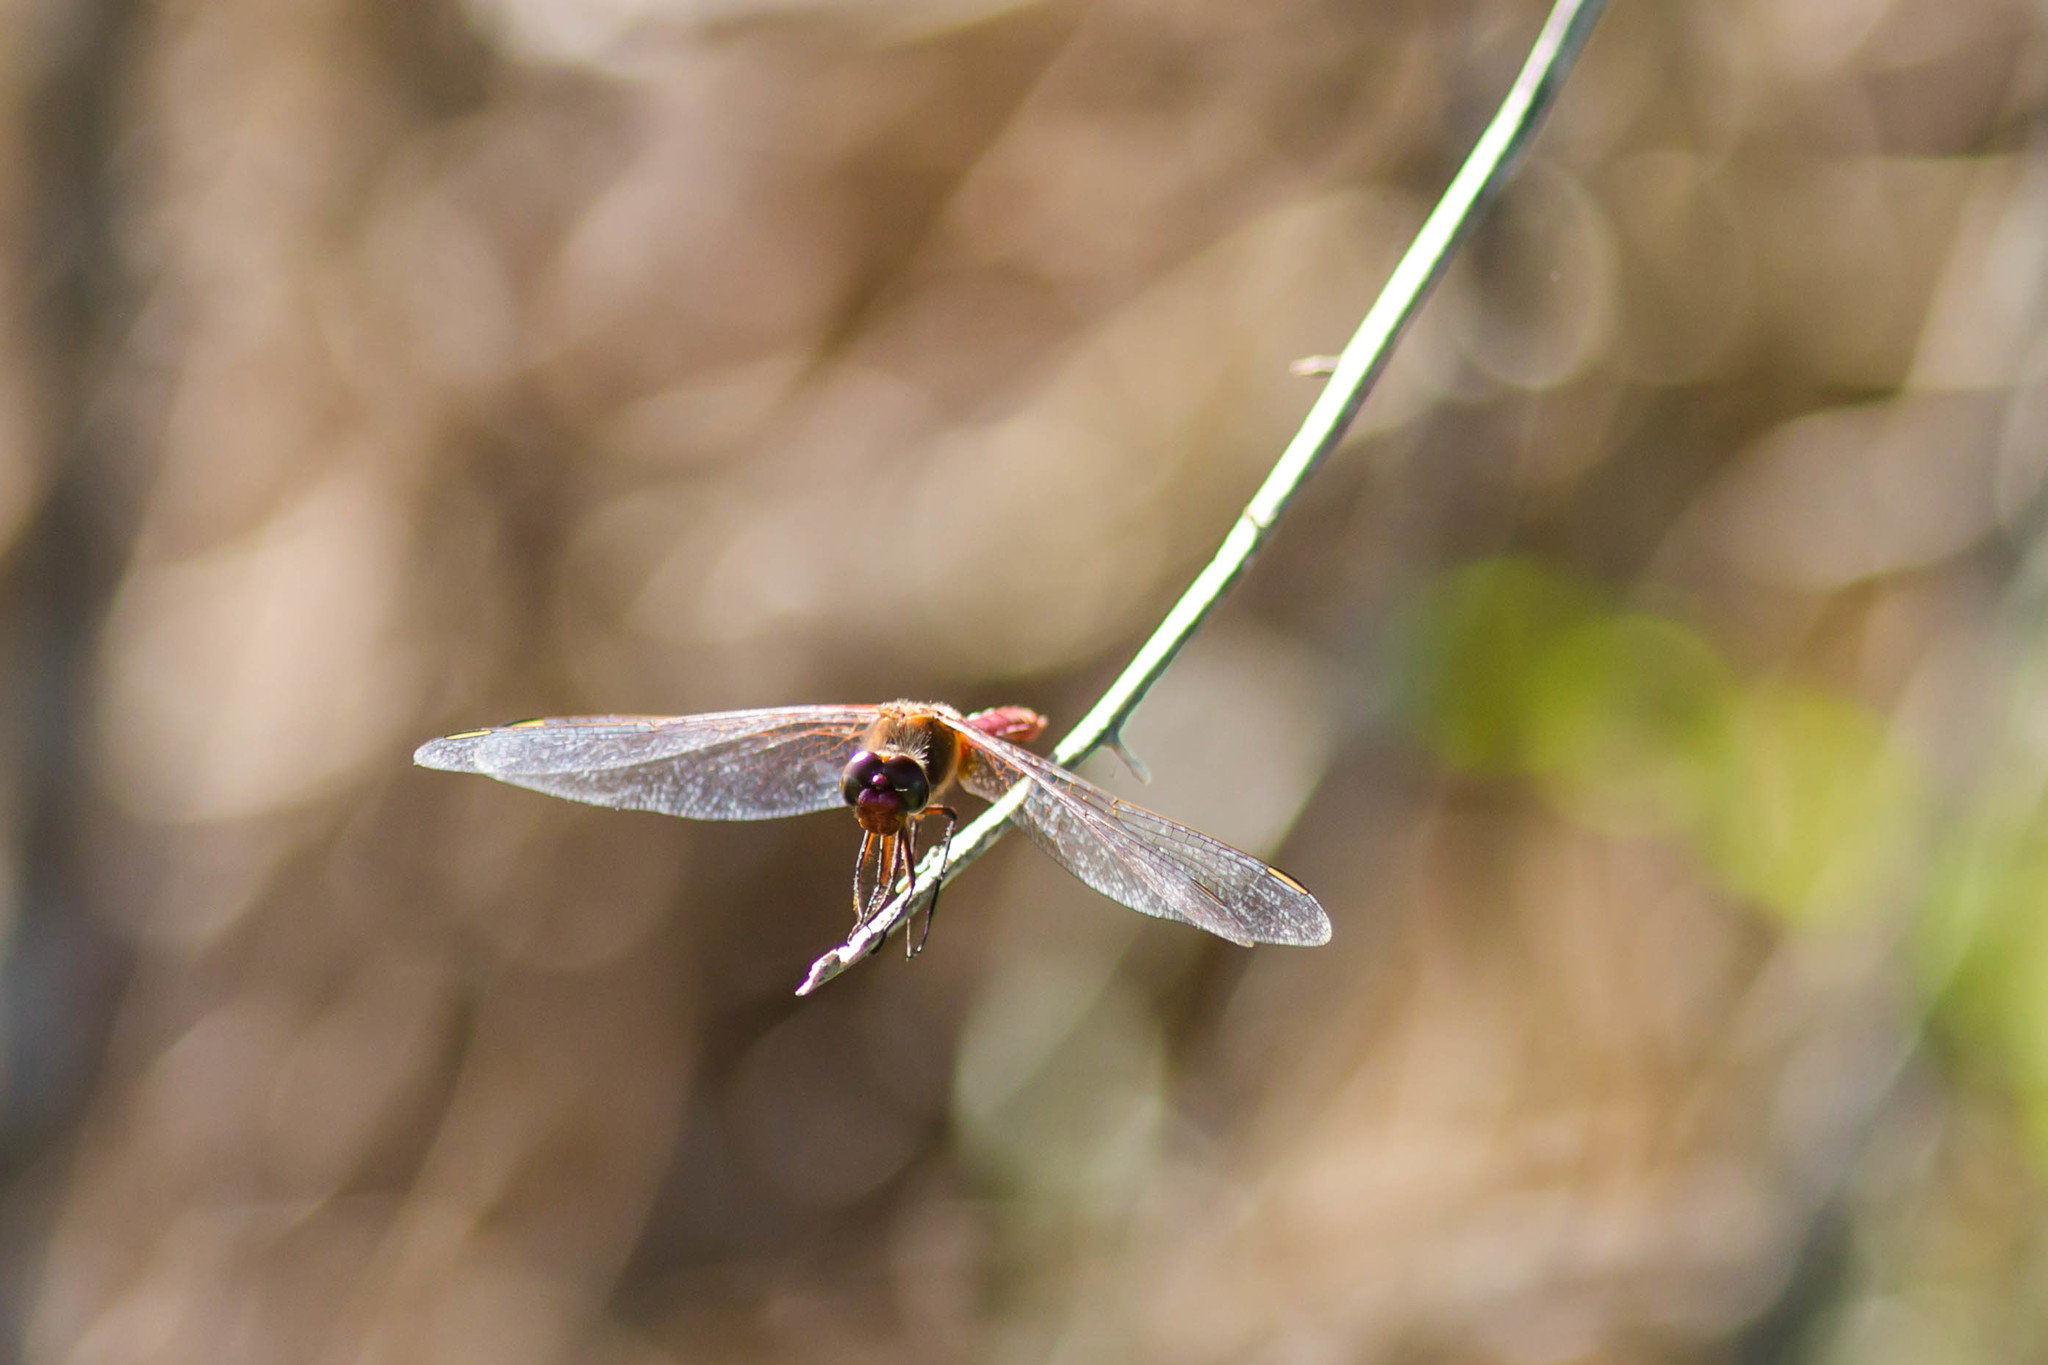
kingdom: Animalia
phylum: Arthropoda
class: Insecta
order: Odonata
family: Libellulidae
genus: Brachymesia
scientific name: Brachymesia furcata
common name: Red-taled pennant
